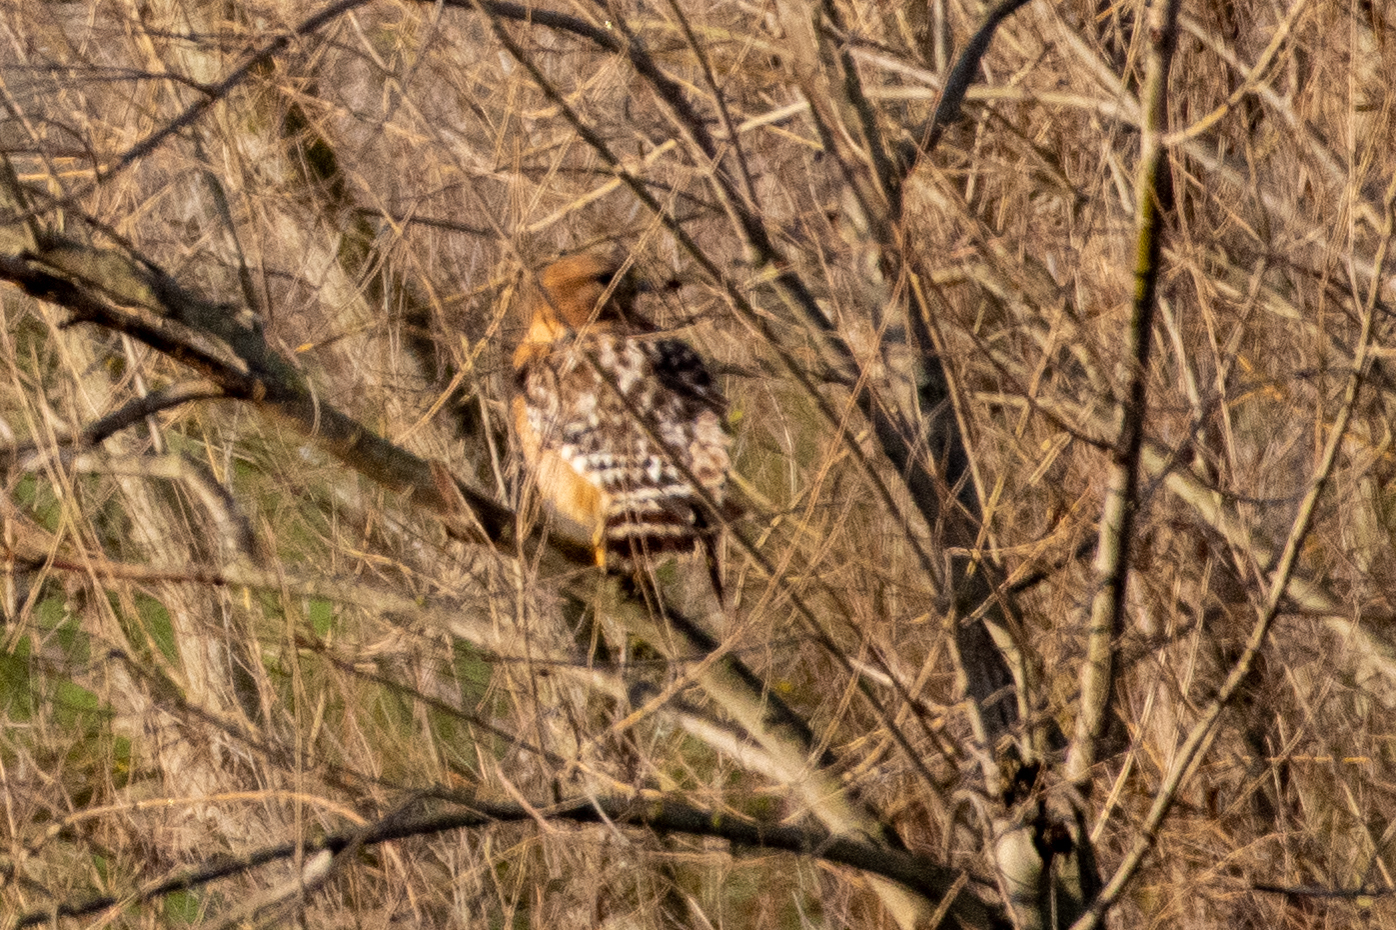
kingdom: Animalia
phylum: Chordata
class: Aves
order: Accipitriformes
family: Accipitridae
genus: Buteo
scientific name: Buteo lineatus
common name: Red-shouldered hawk
